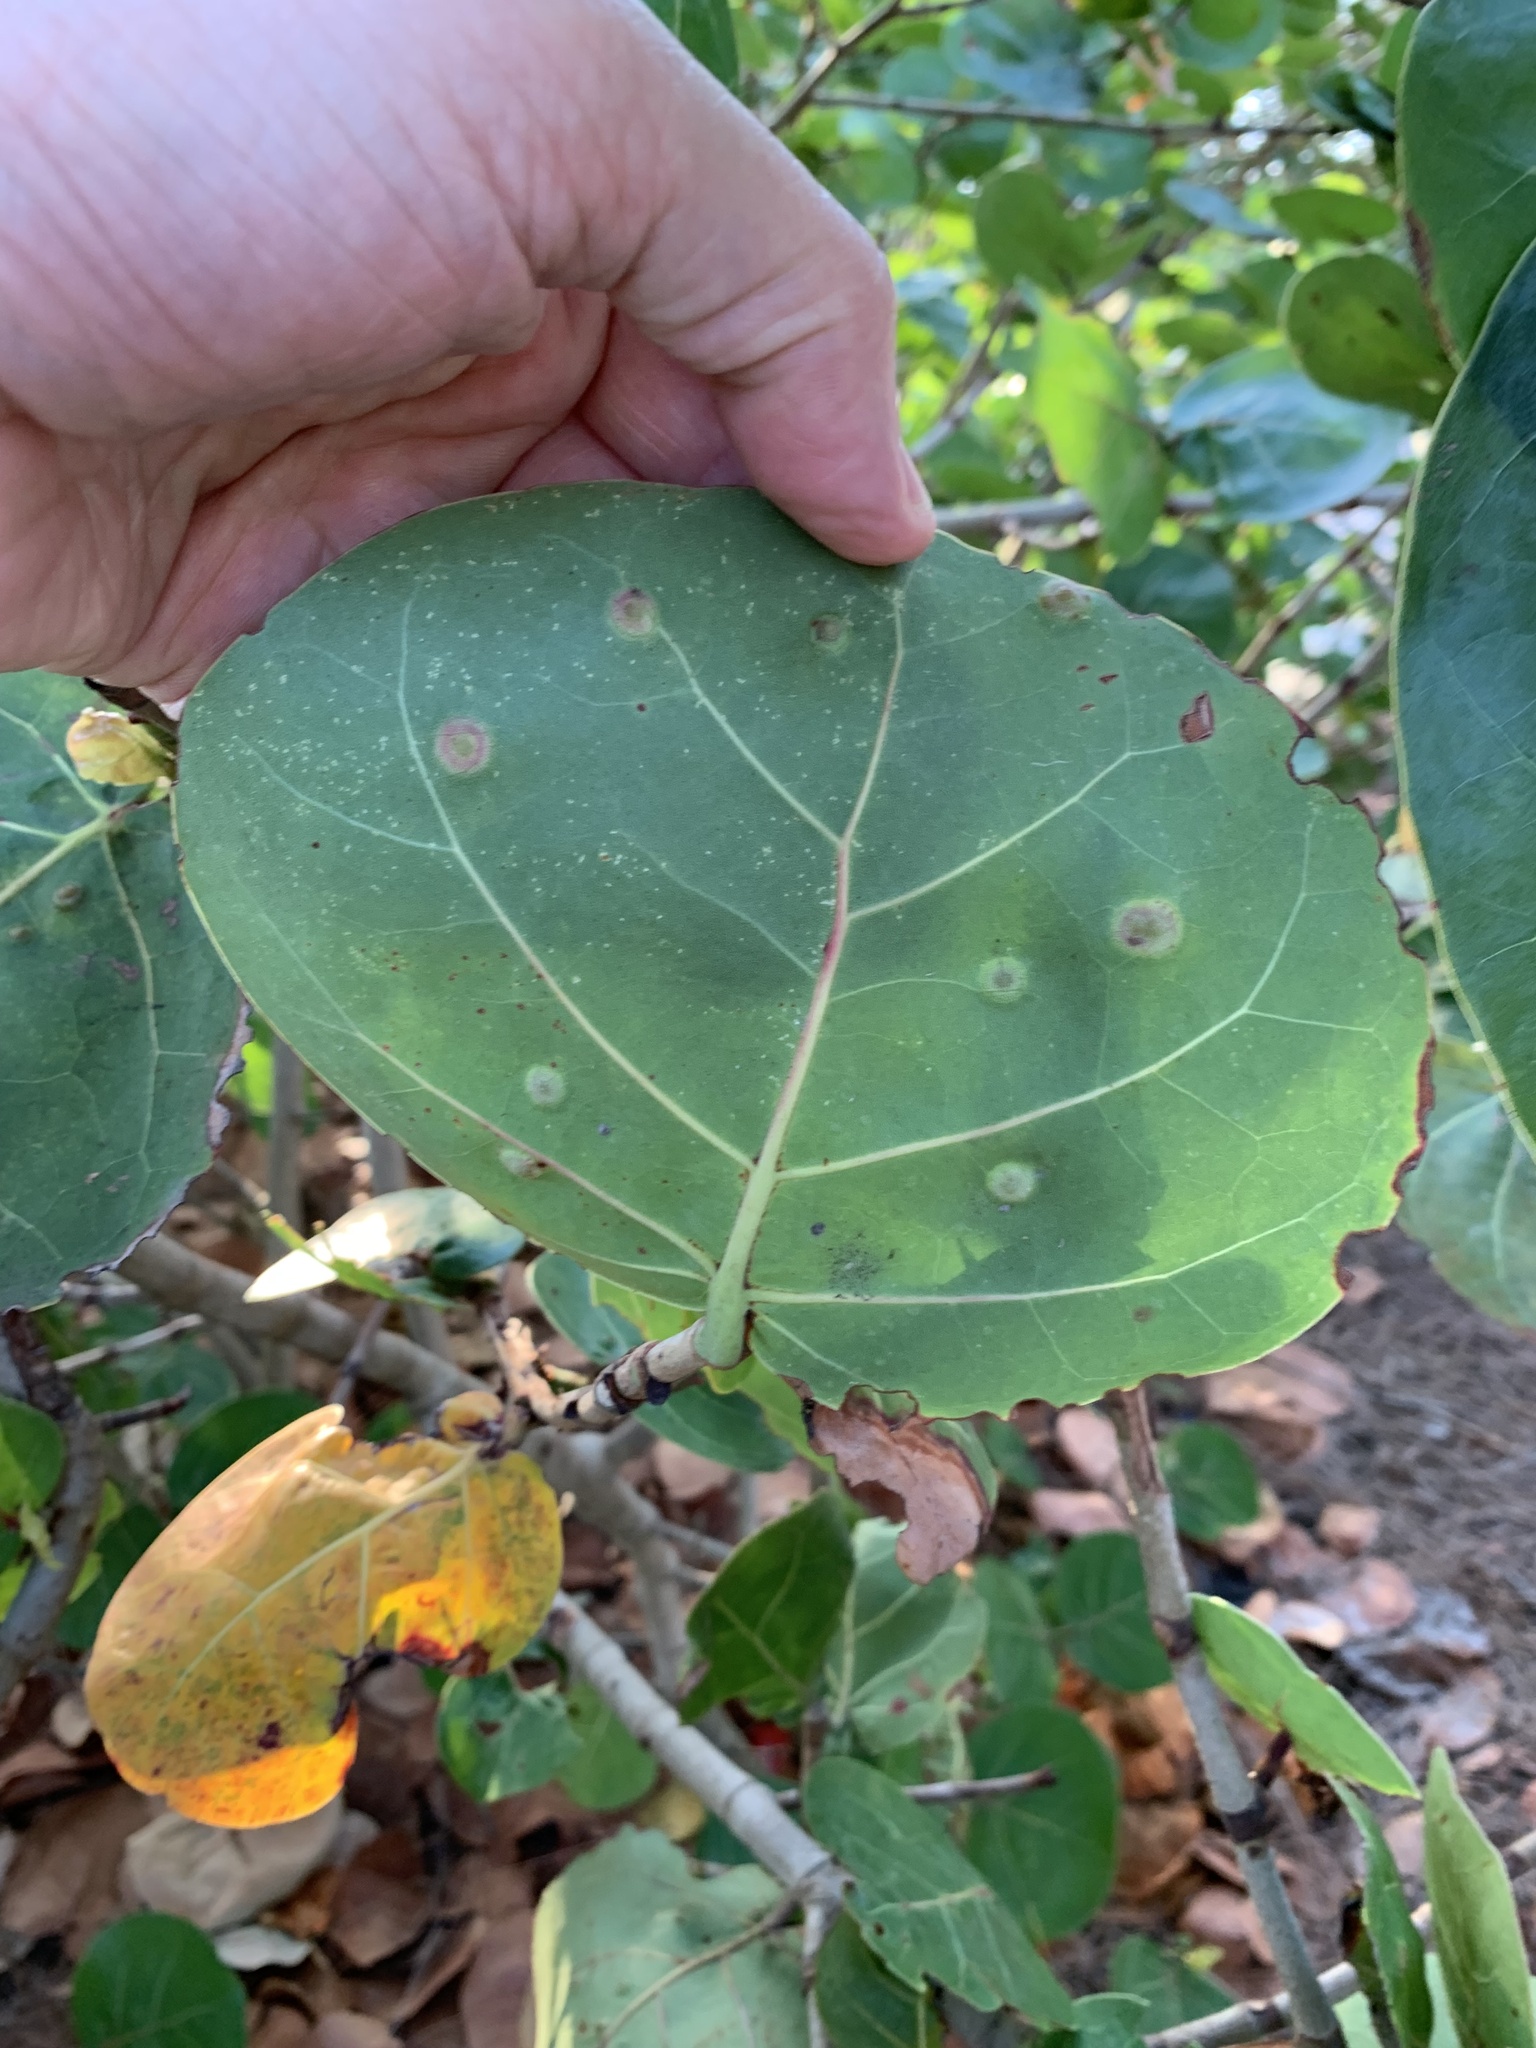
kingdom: Animalia
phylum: Arthropoda
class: Insecta
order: Diptera
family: Cecidomyiidae
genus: Ctenodactylomyia
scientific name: Ctenodactylomyia watsoni
